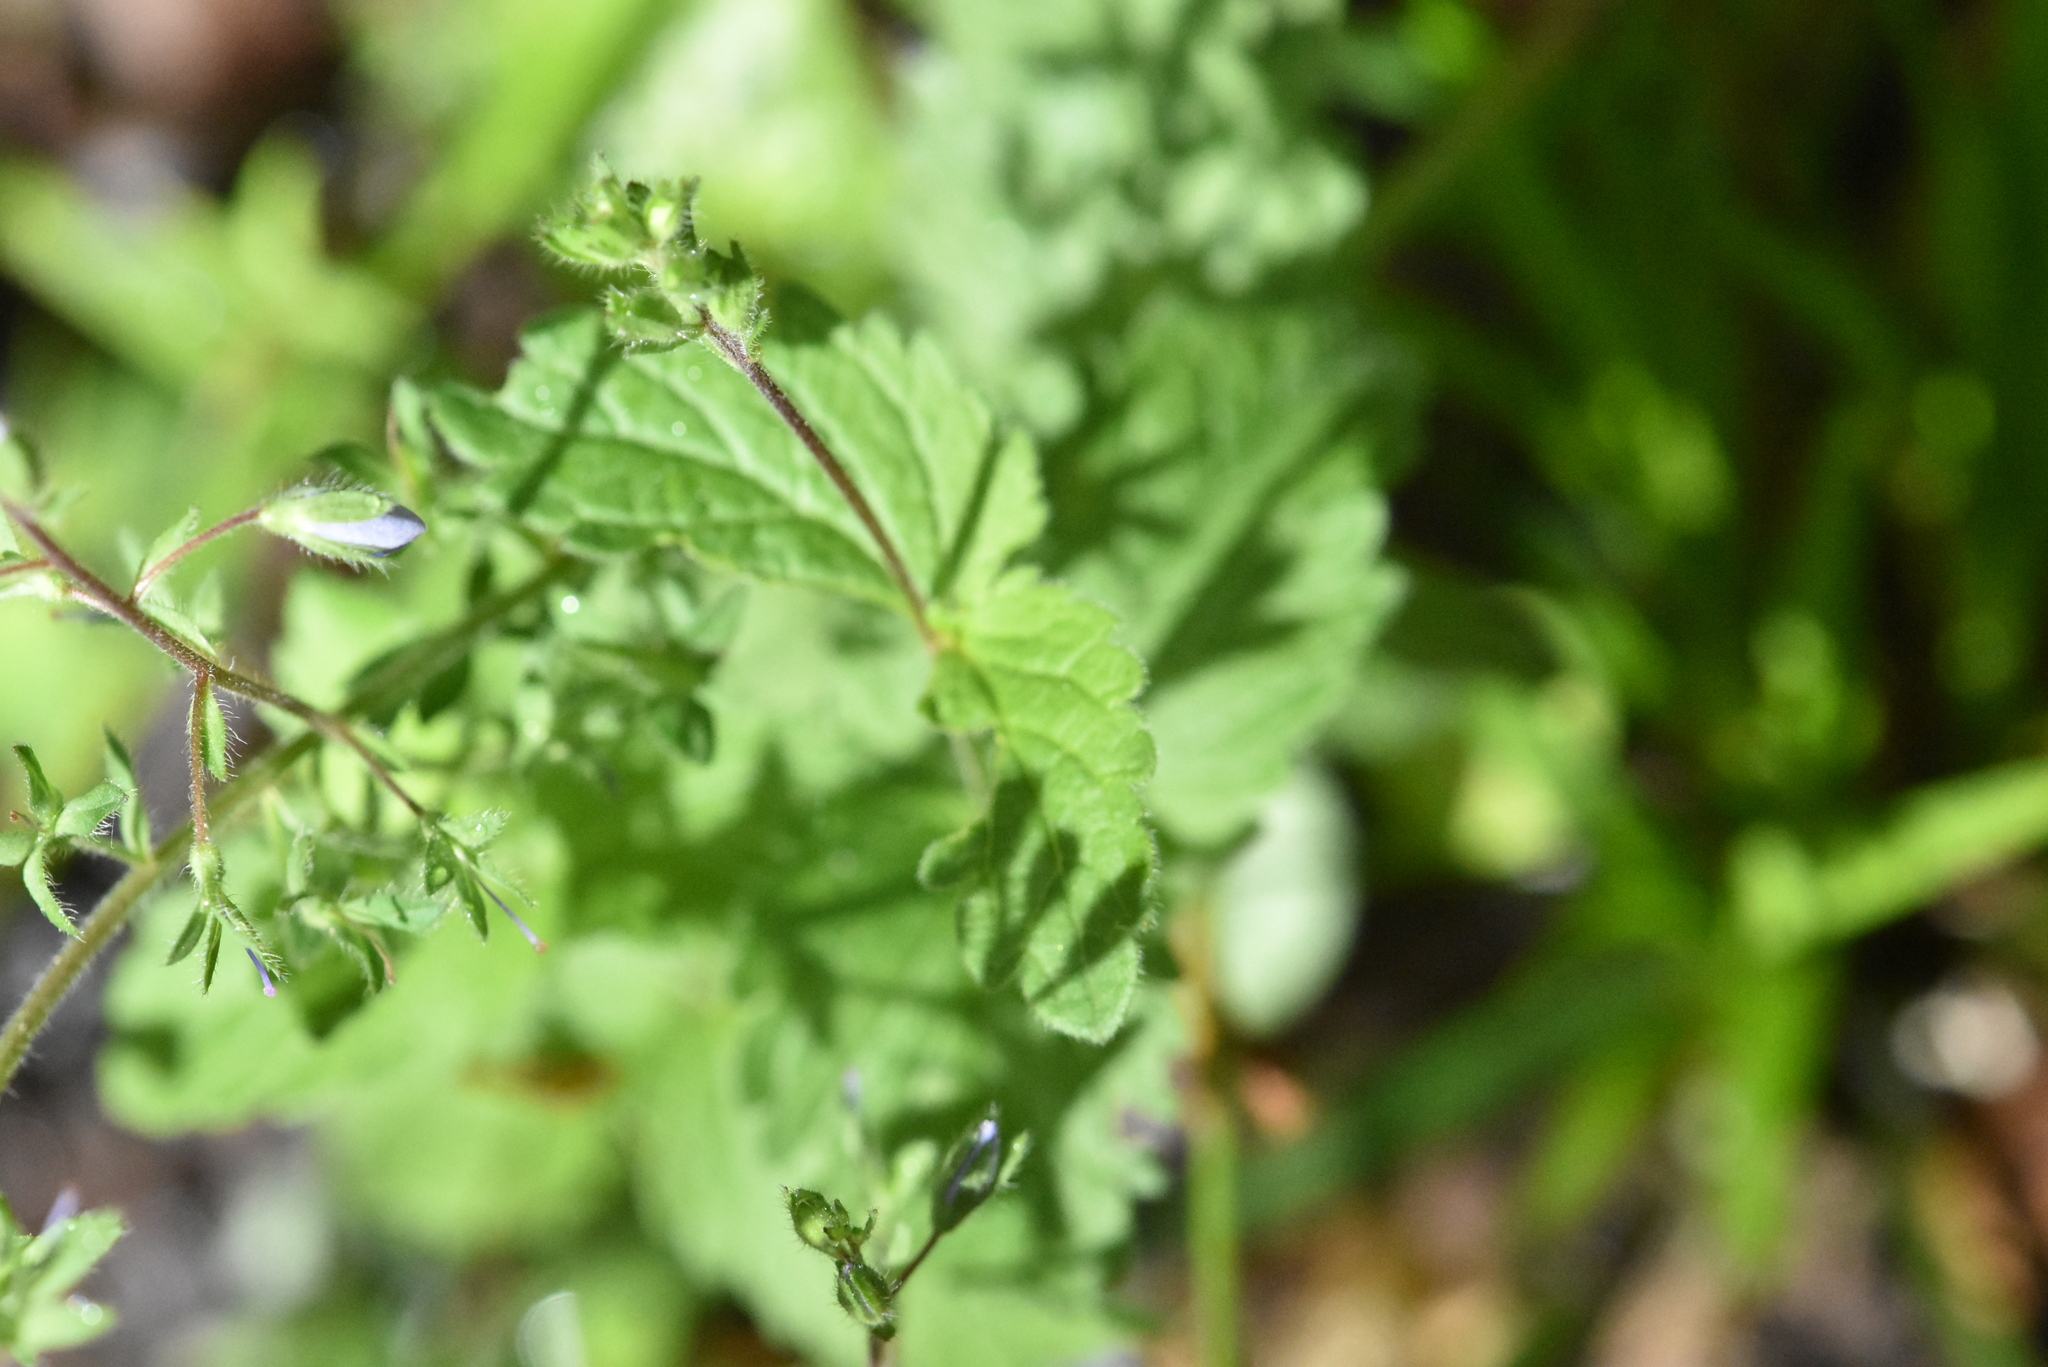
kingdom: Plantae
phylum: Tracheophyta
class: Magnoliopsida
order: Lamiales
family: Plantaginaceae
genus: Veronica
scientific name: Veronica chamaedrys
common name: Germander speedwell
